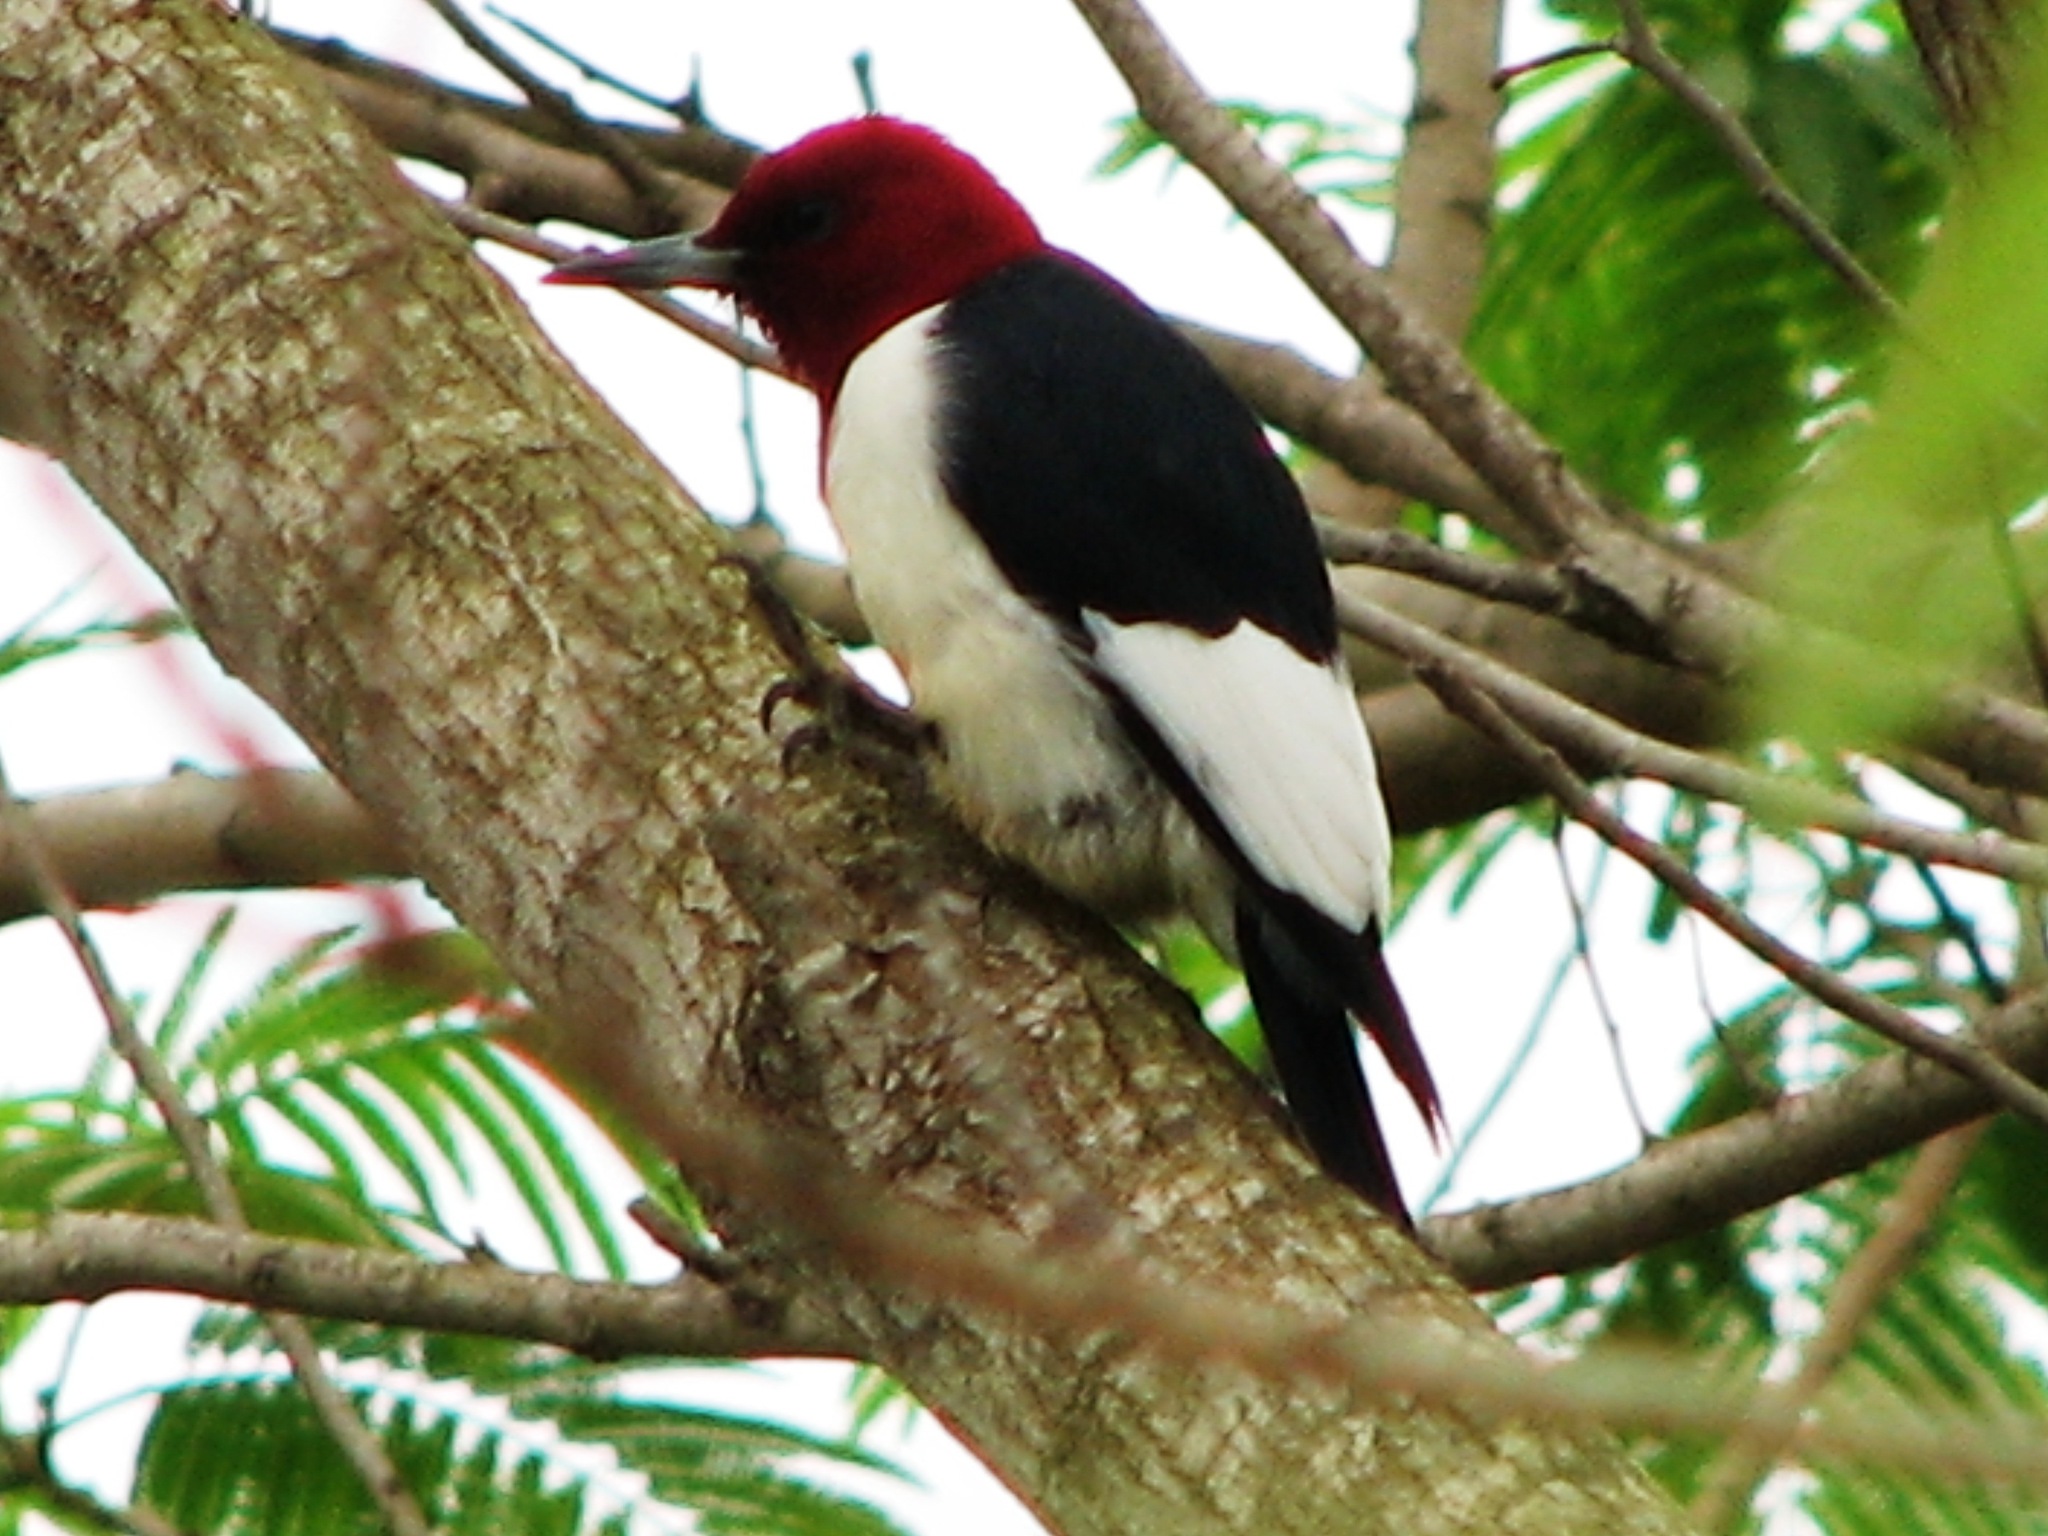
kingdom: Animalia
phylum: Chordata
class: Aves
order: Piciformes
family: Picidae
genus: Melanerpes
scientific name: Melanerpes erythrocephalus
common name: Red-headed woodpecker
